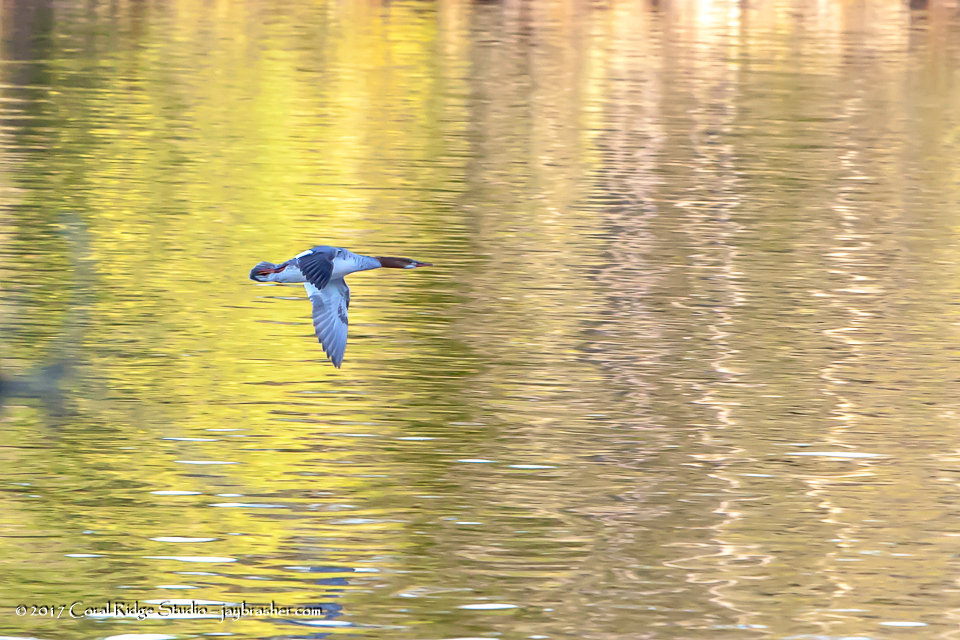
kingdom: Animalia
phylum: Chordata
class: Aves
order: Anseriformes
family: Anatidae
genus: Mergus
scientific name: Mergus merganser
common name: Common merganser
